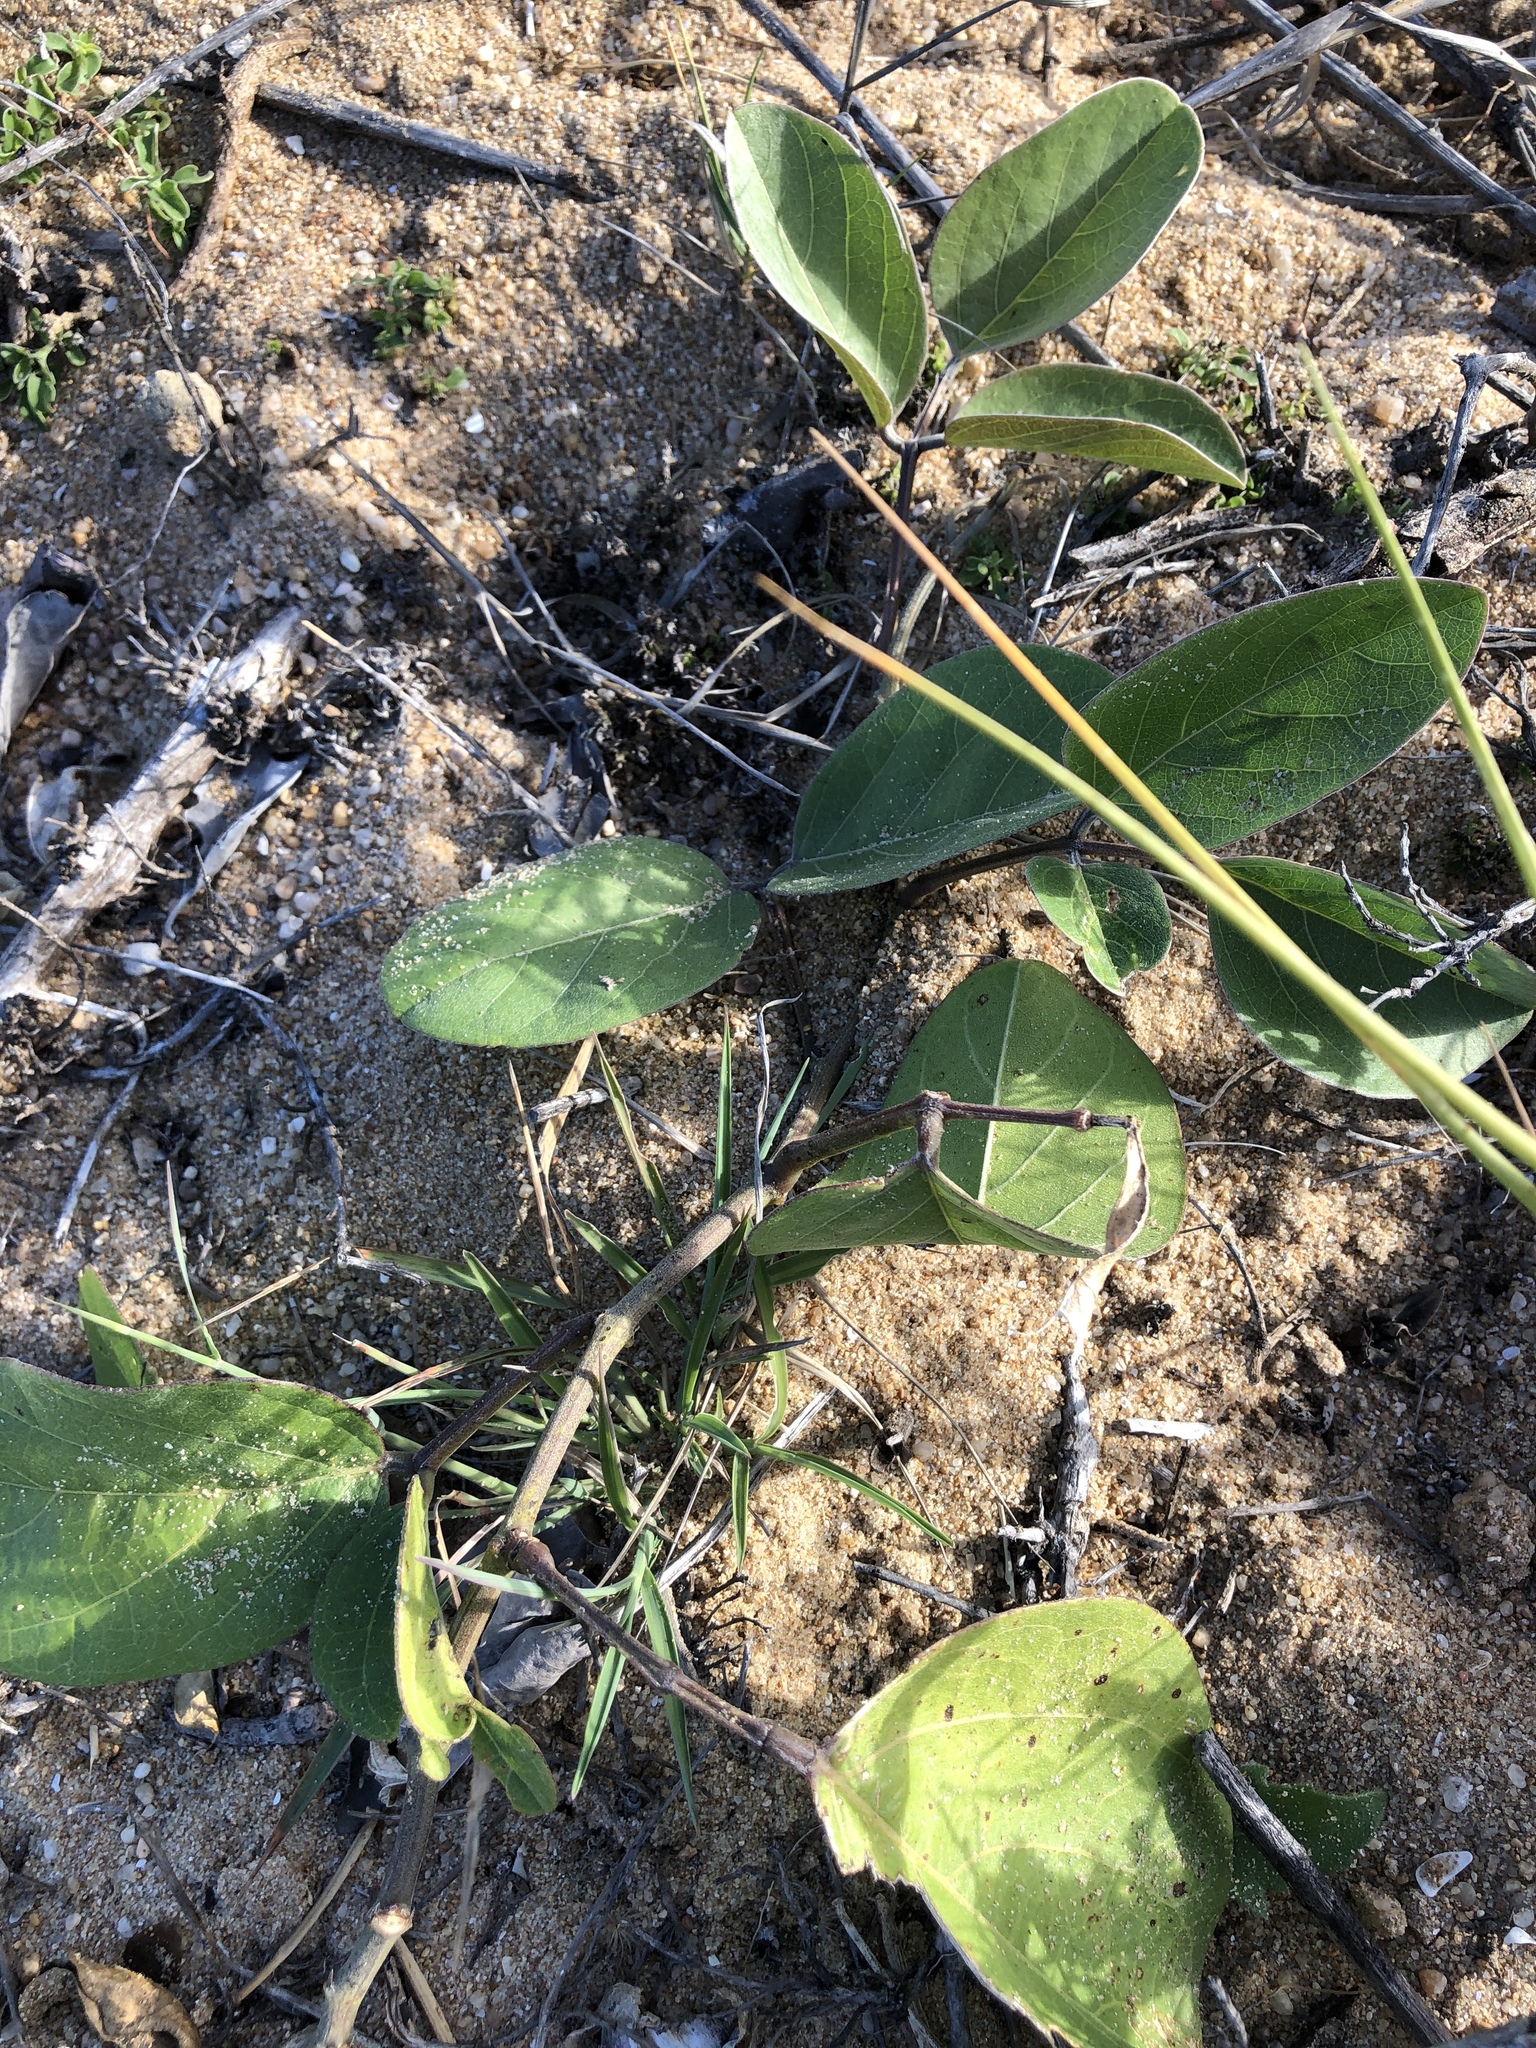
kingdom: Plantae
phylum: Tracheophyta
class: Magnoliopsida
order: Fabales
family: Fabaceae
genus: Canavalia
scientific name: Canavalia rosea
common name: Beach-bean
